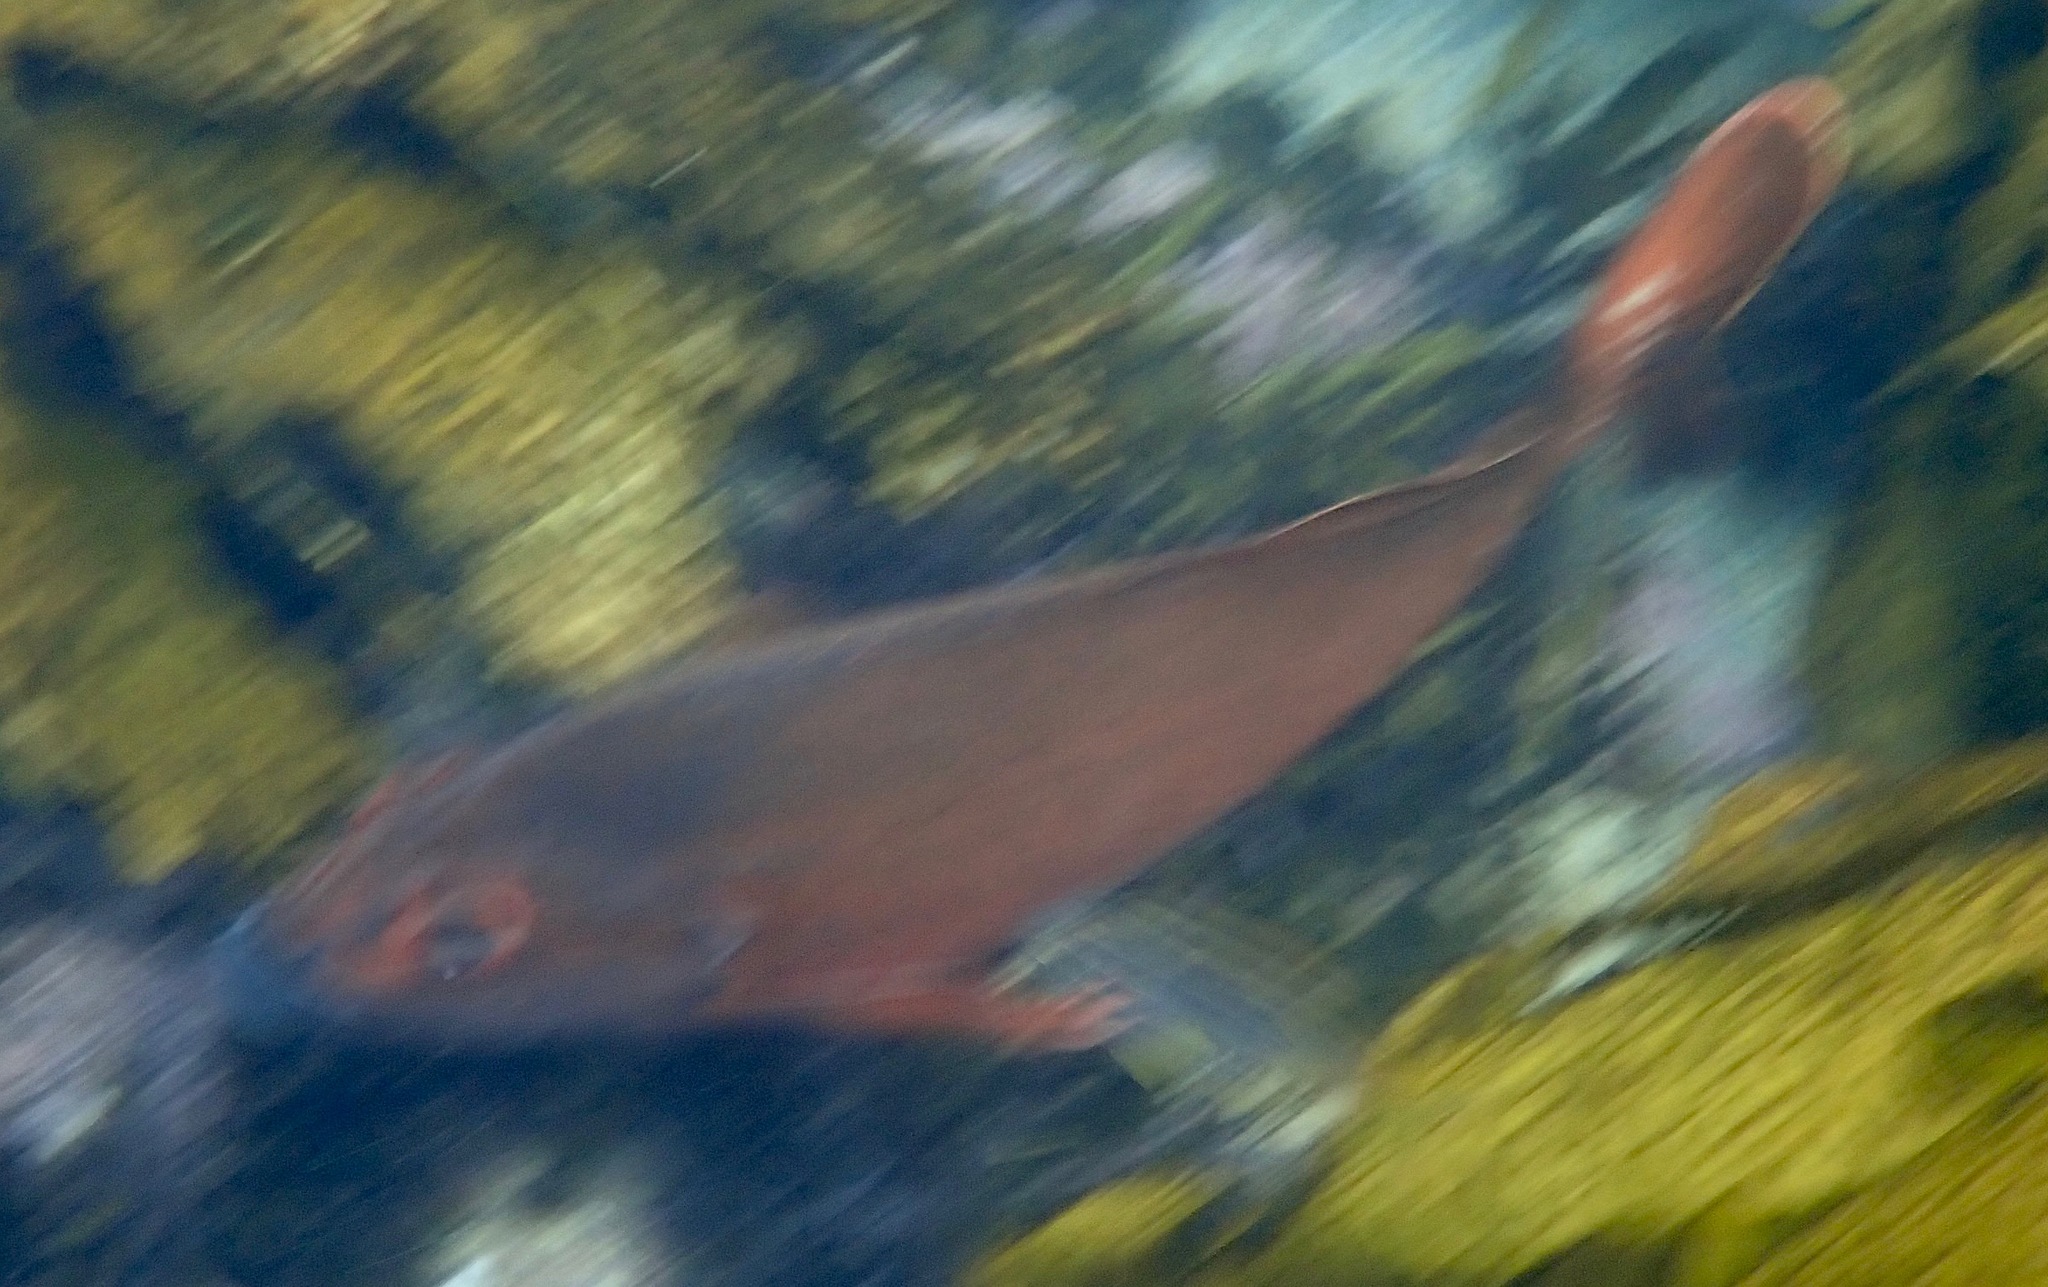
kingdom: Animalia
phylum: Chordata
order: Perciformes
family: Latridae
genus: Morwong
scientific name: Morwong fuscus
